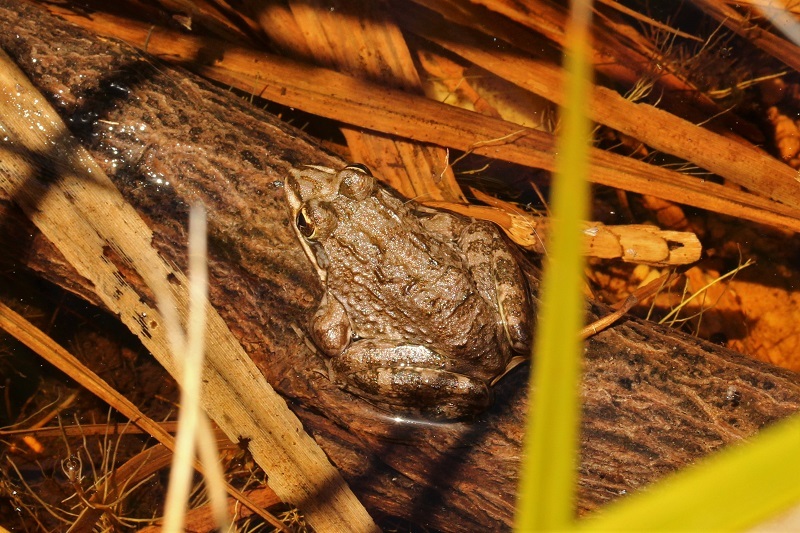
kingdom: Animalia
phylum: Chordata
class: Amphibia
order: Anura
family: Pyxicephalidae
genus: Amietia
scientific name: Amietia fuscigula
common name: Cape rana
